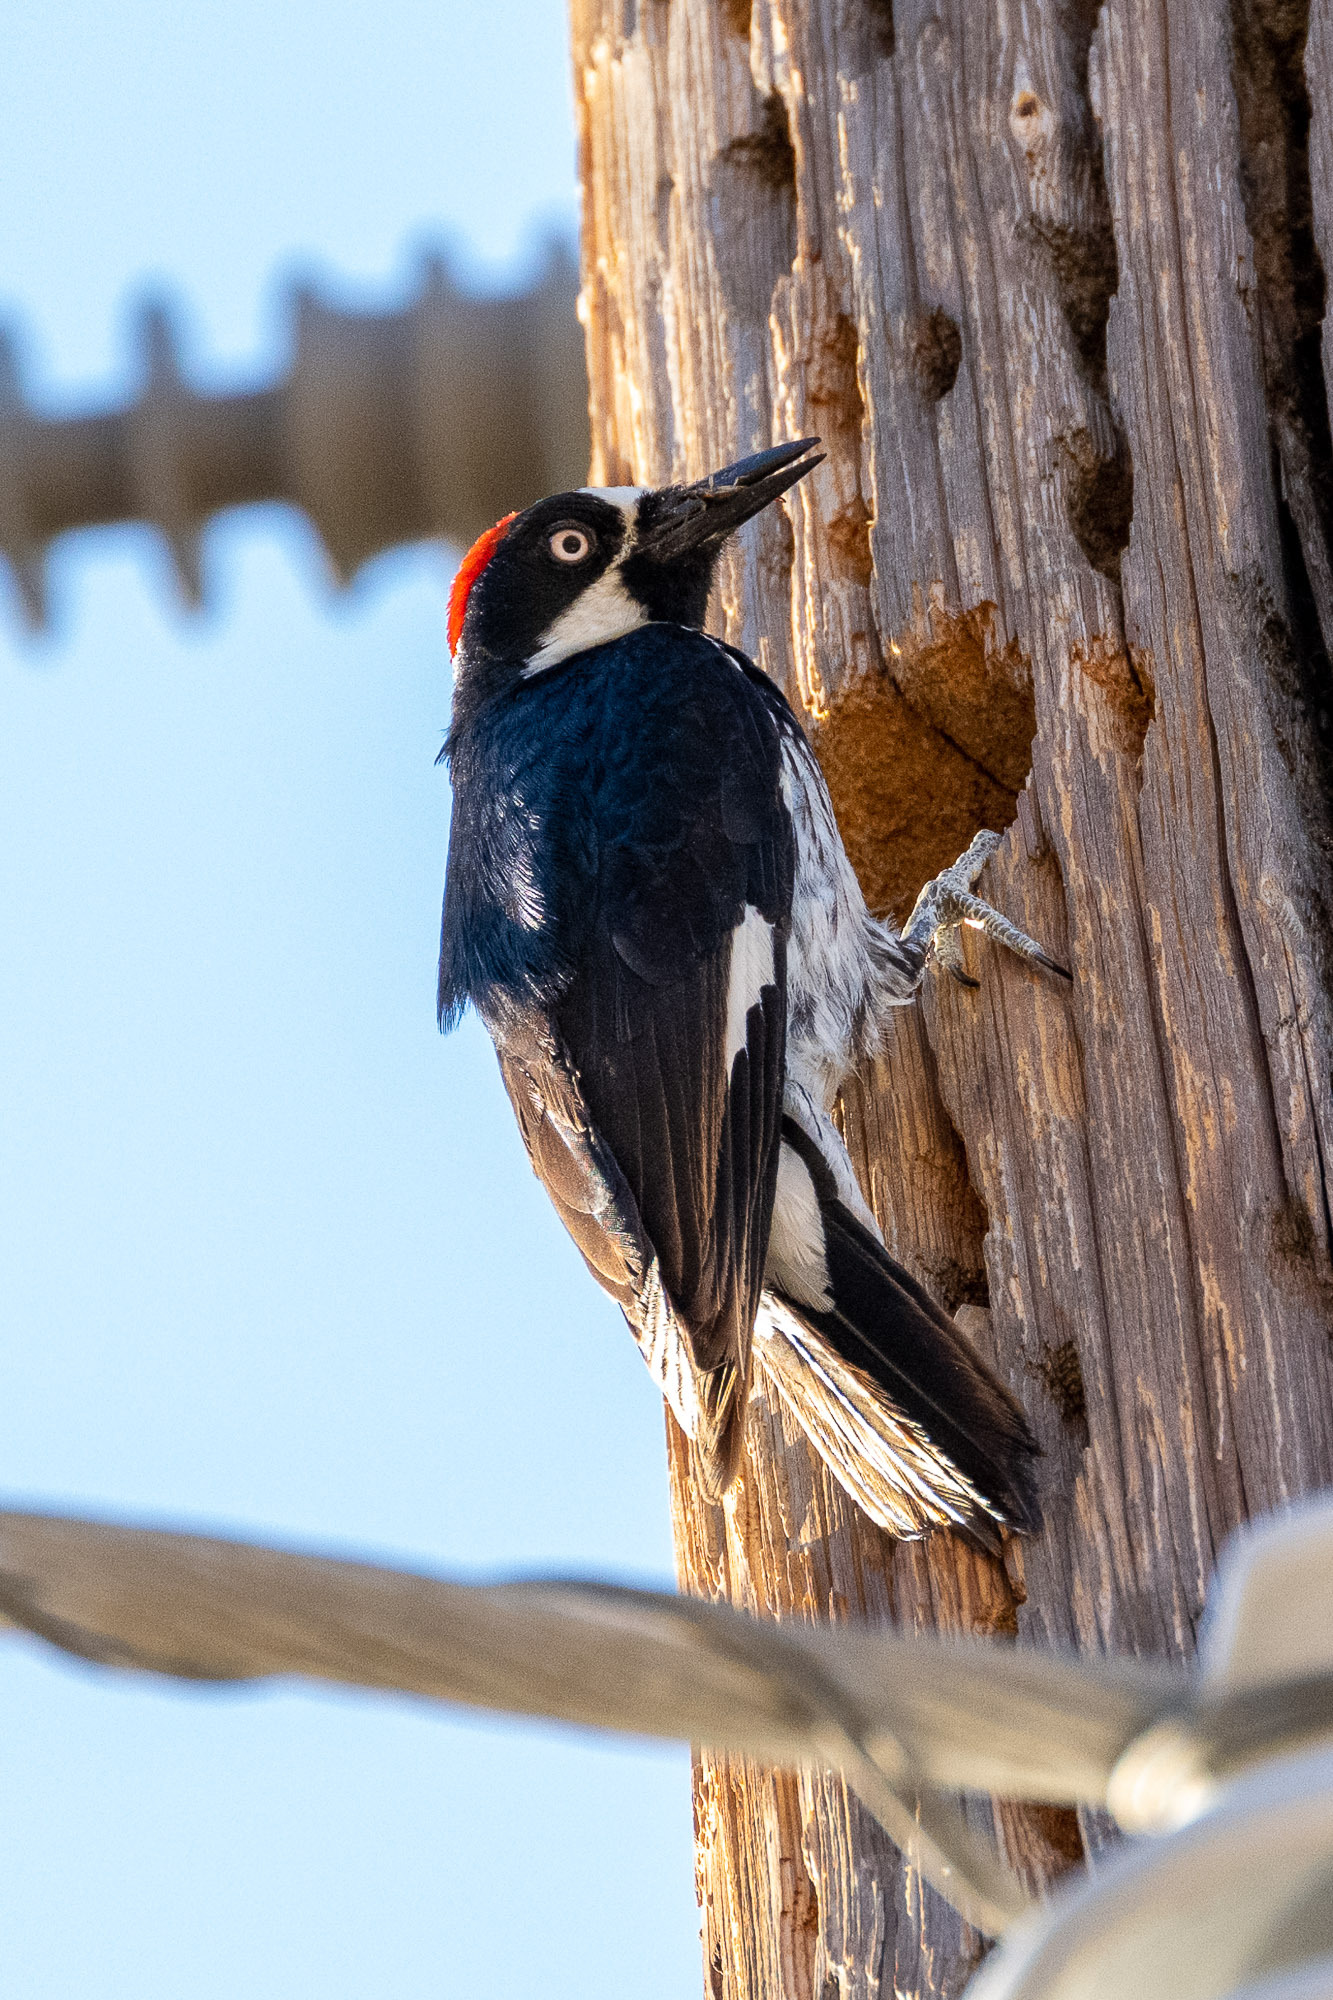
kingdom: Animalia
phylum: Chordata
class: Aves
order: Piciformes
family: Picidae
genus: Melanerpes
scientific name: Melanerpes formicivorus
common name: Acorn woodpecker
